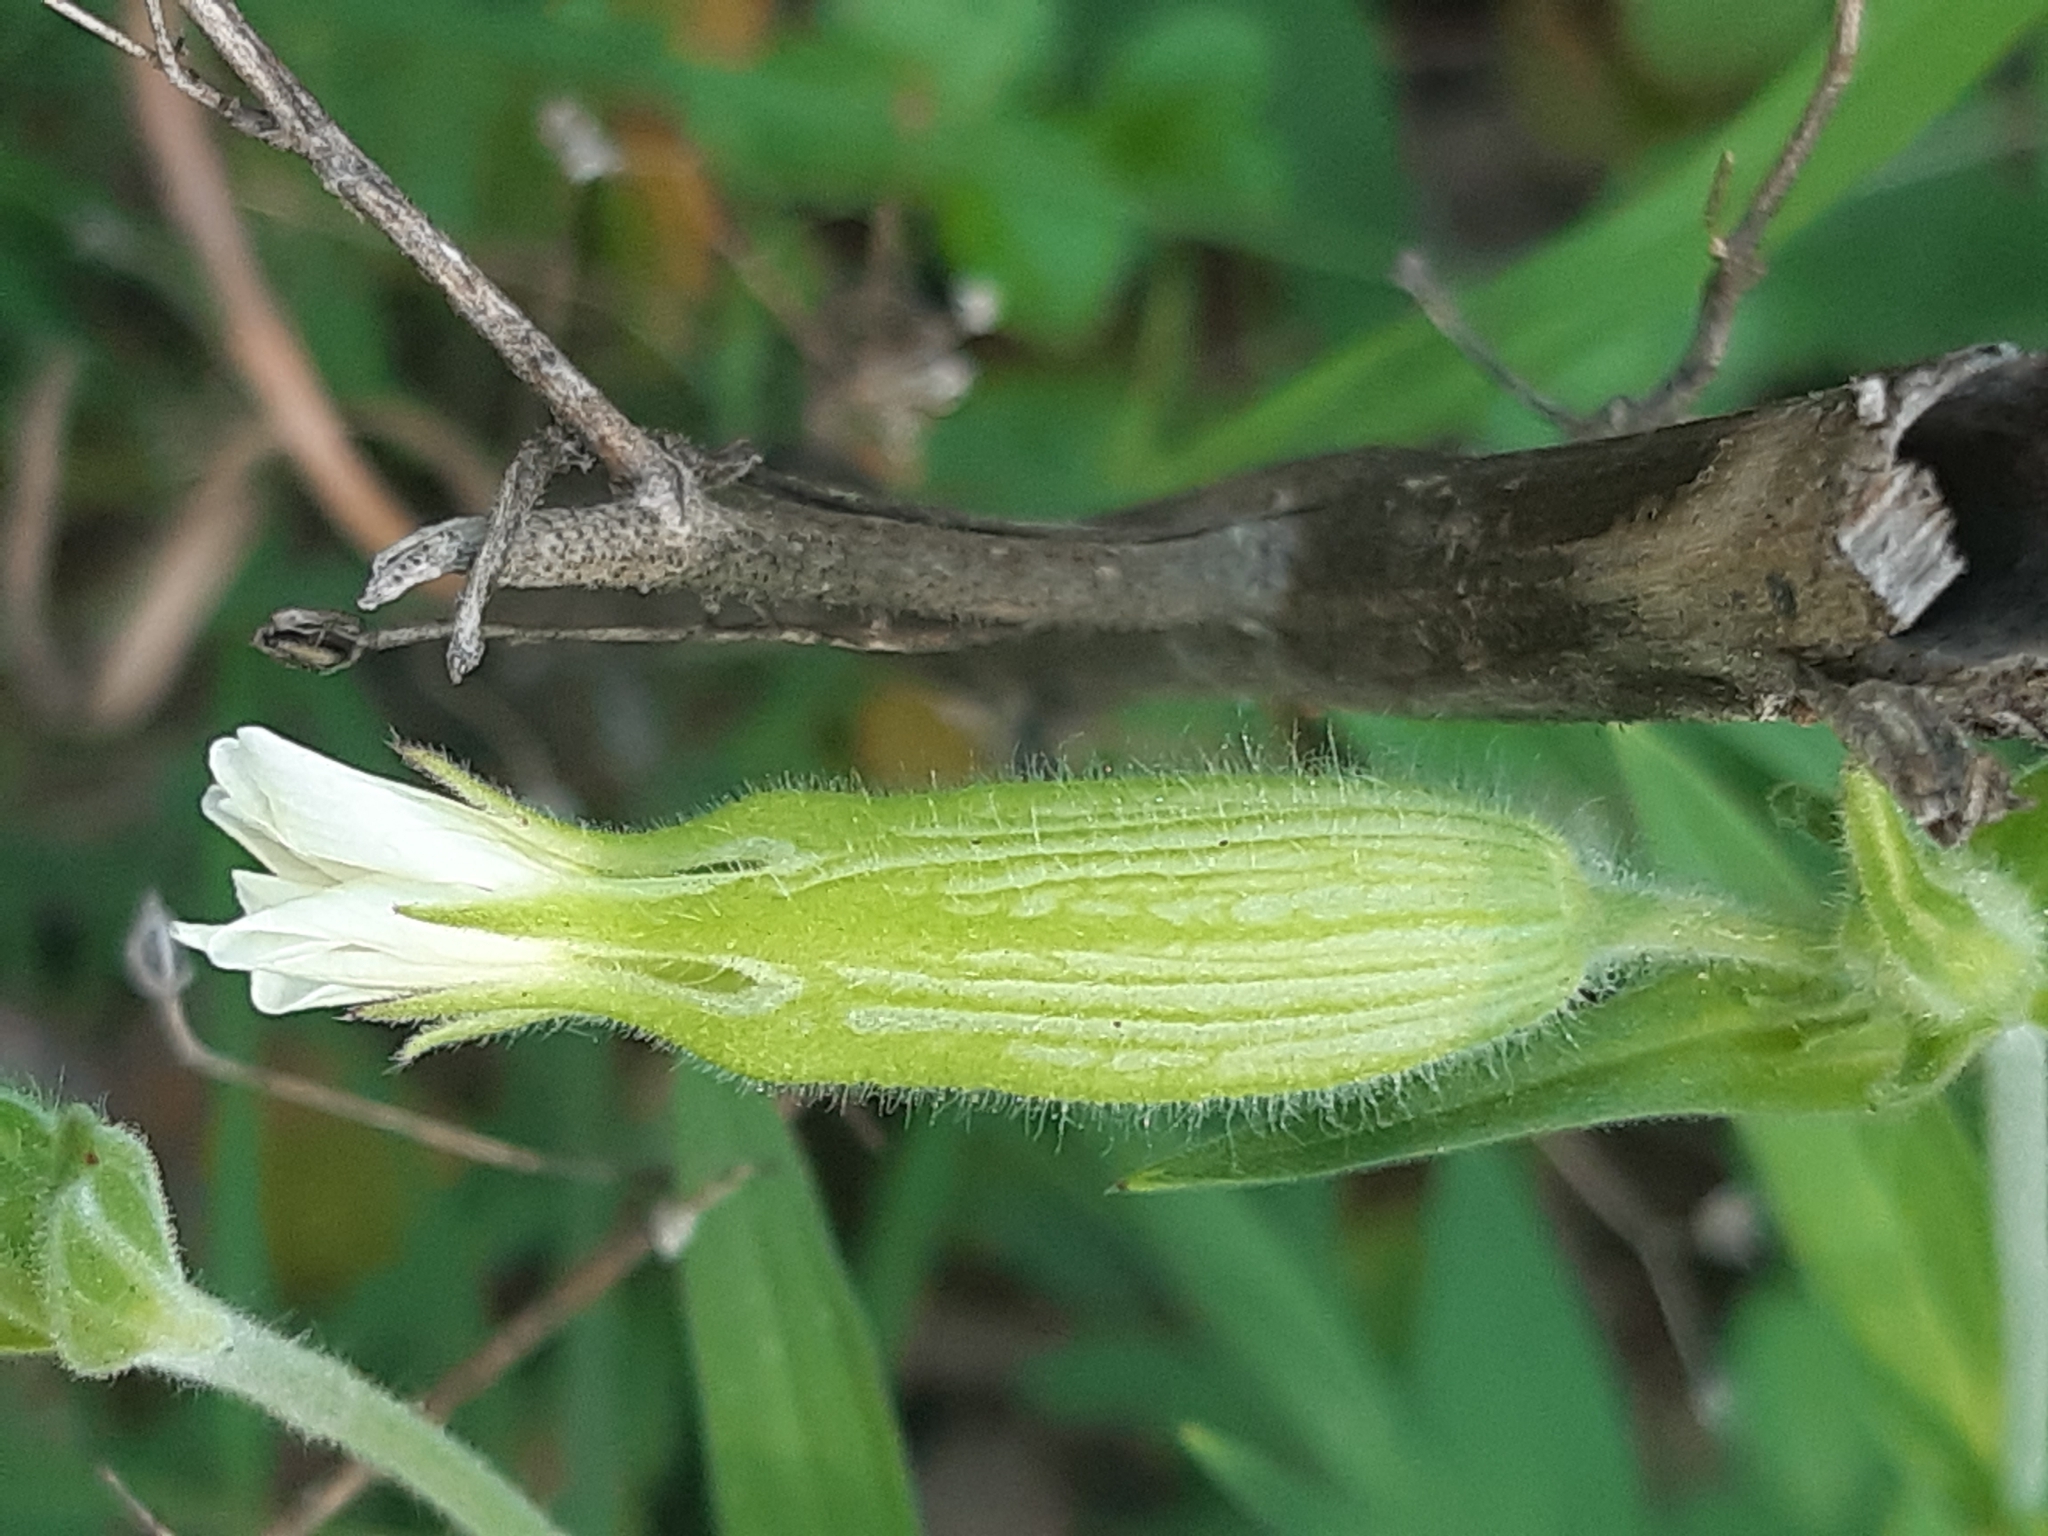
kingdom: Plantae
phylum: Tracheophyta
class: Magnoliopsida
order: Caryophyllales
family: Caryophyllaceae
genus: Silene
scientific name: Silene latifolia
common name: White campion
